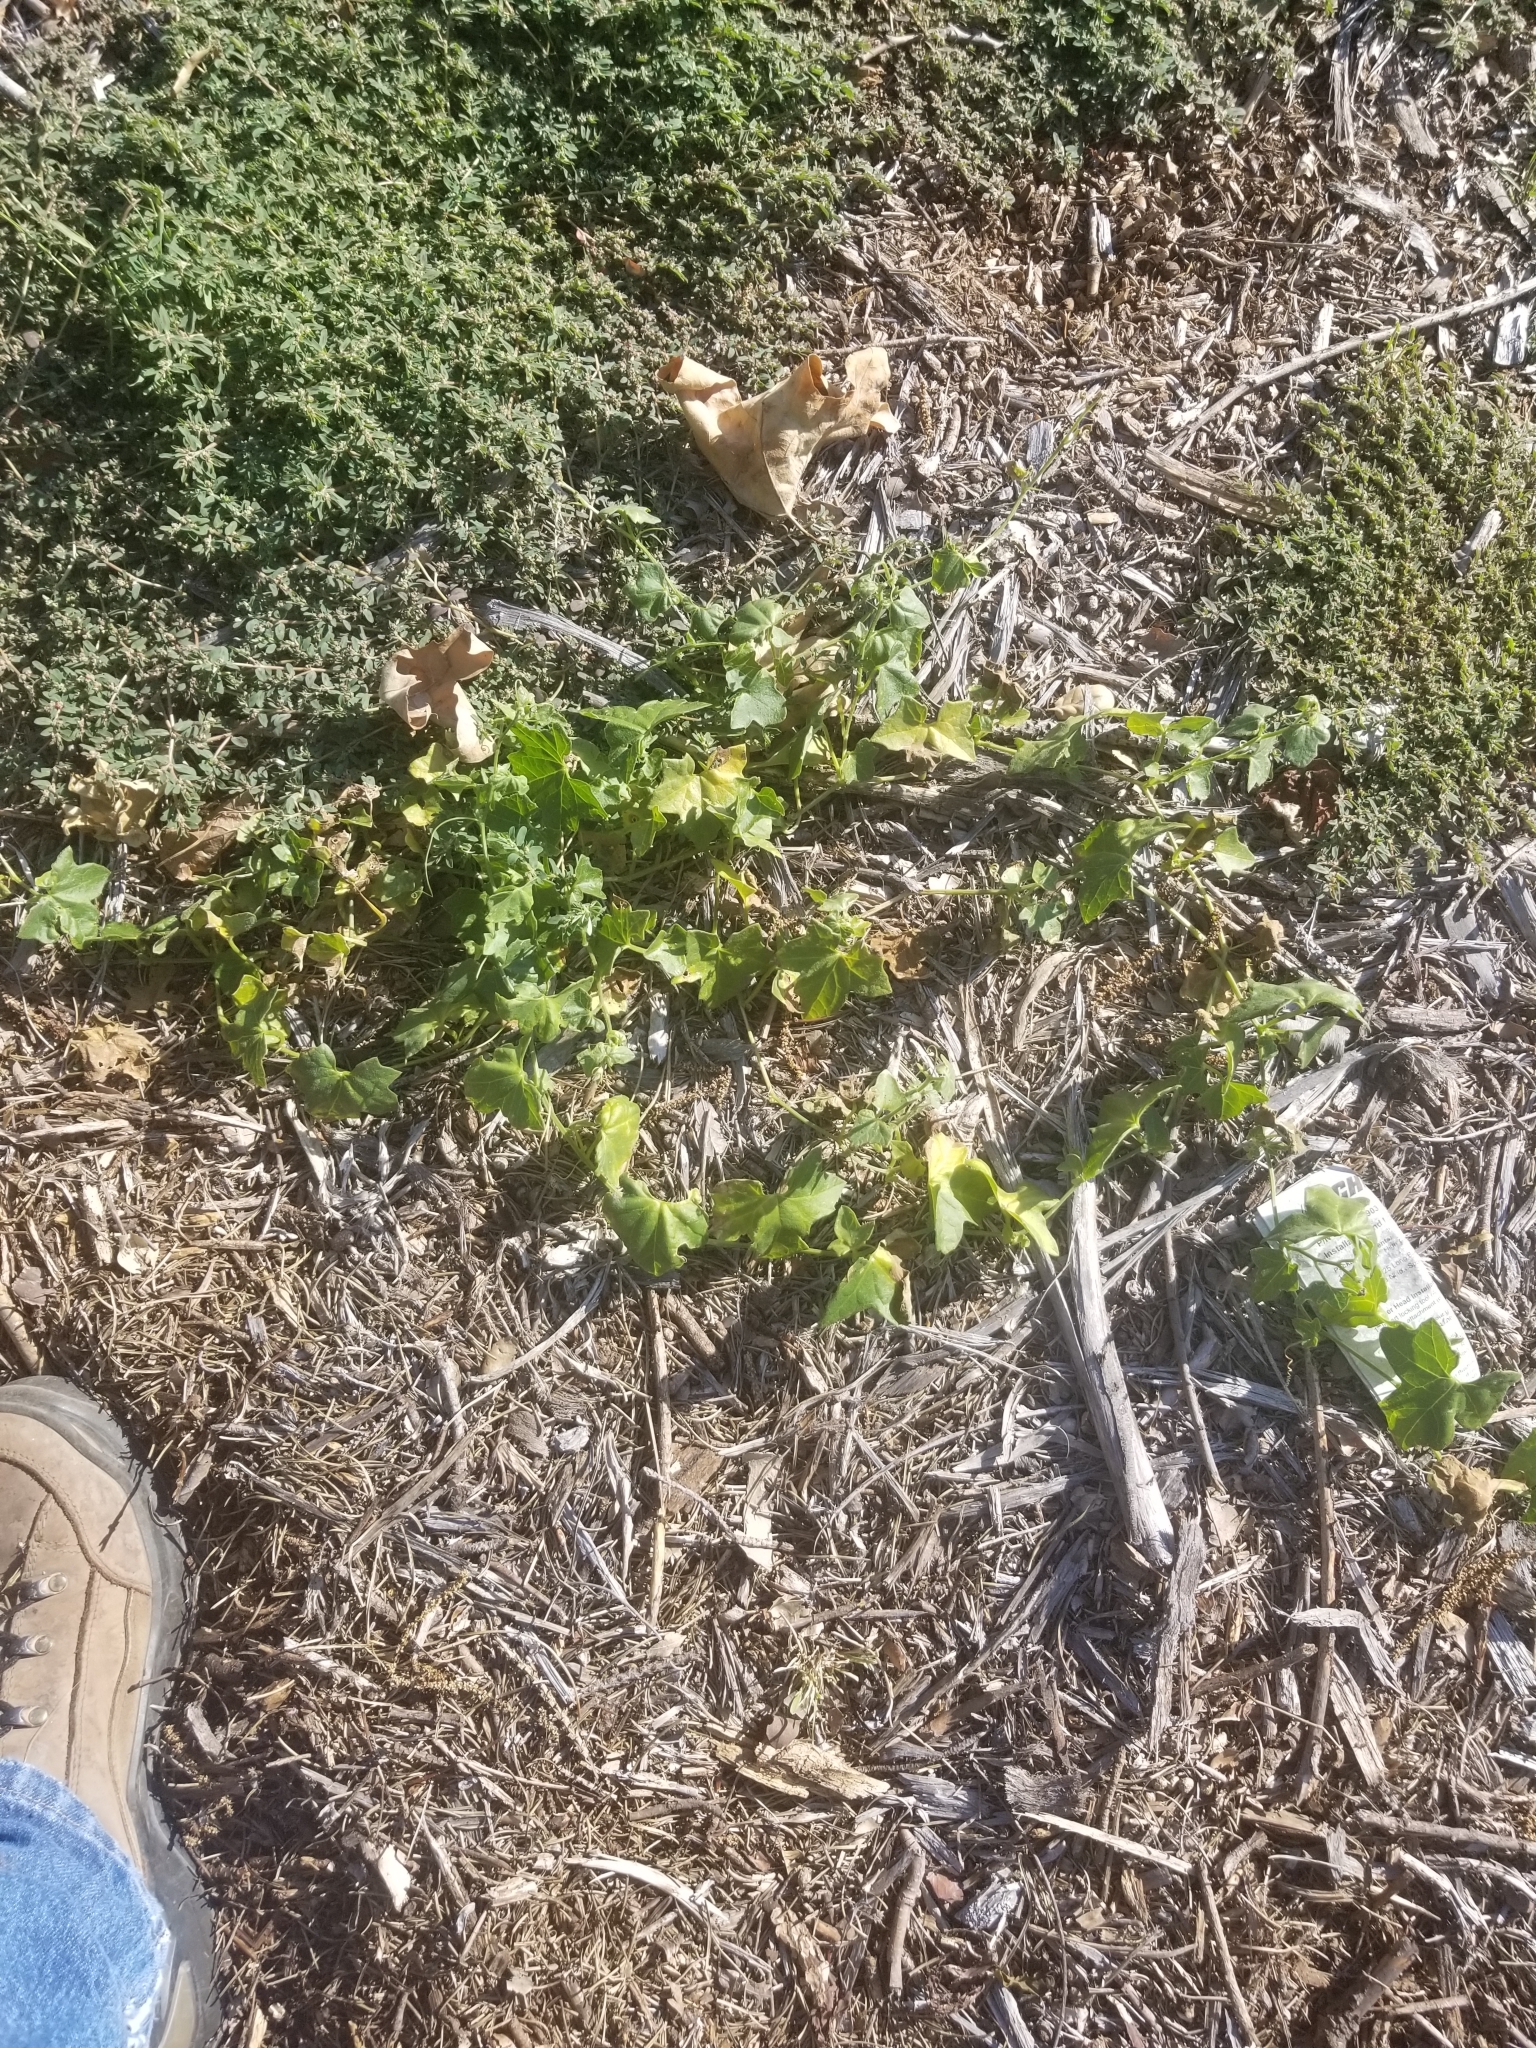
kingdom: Plantae
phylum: Tracheophyta
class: Magnoliopsida
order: Cucurbitales
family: Cucurbitaceae
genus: Marah
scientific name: Marah macrocarpa
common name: Cucamonga manroot
